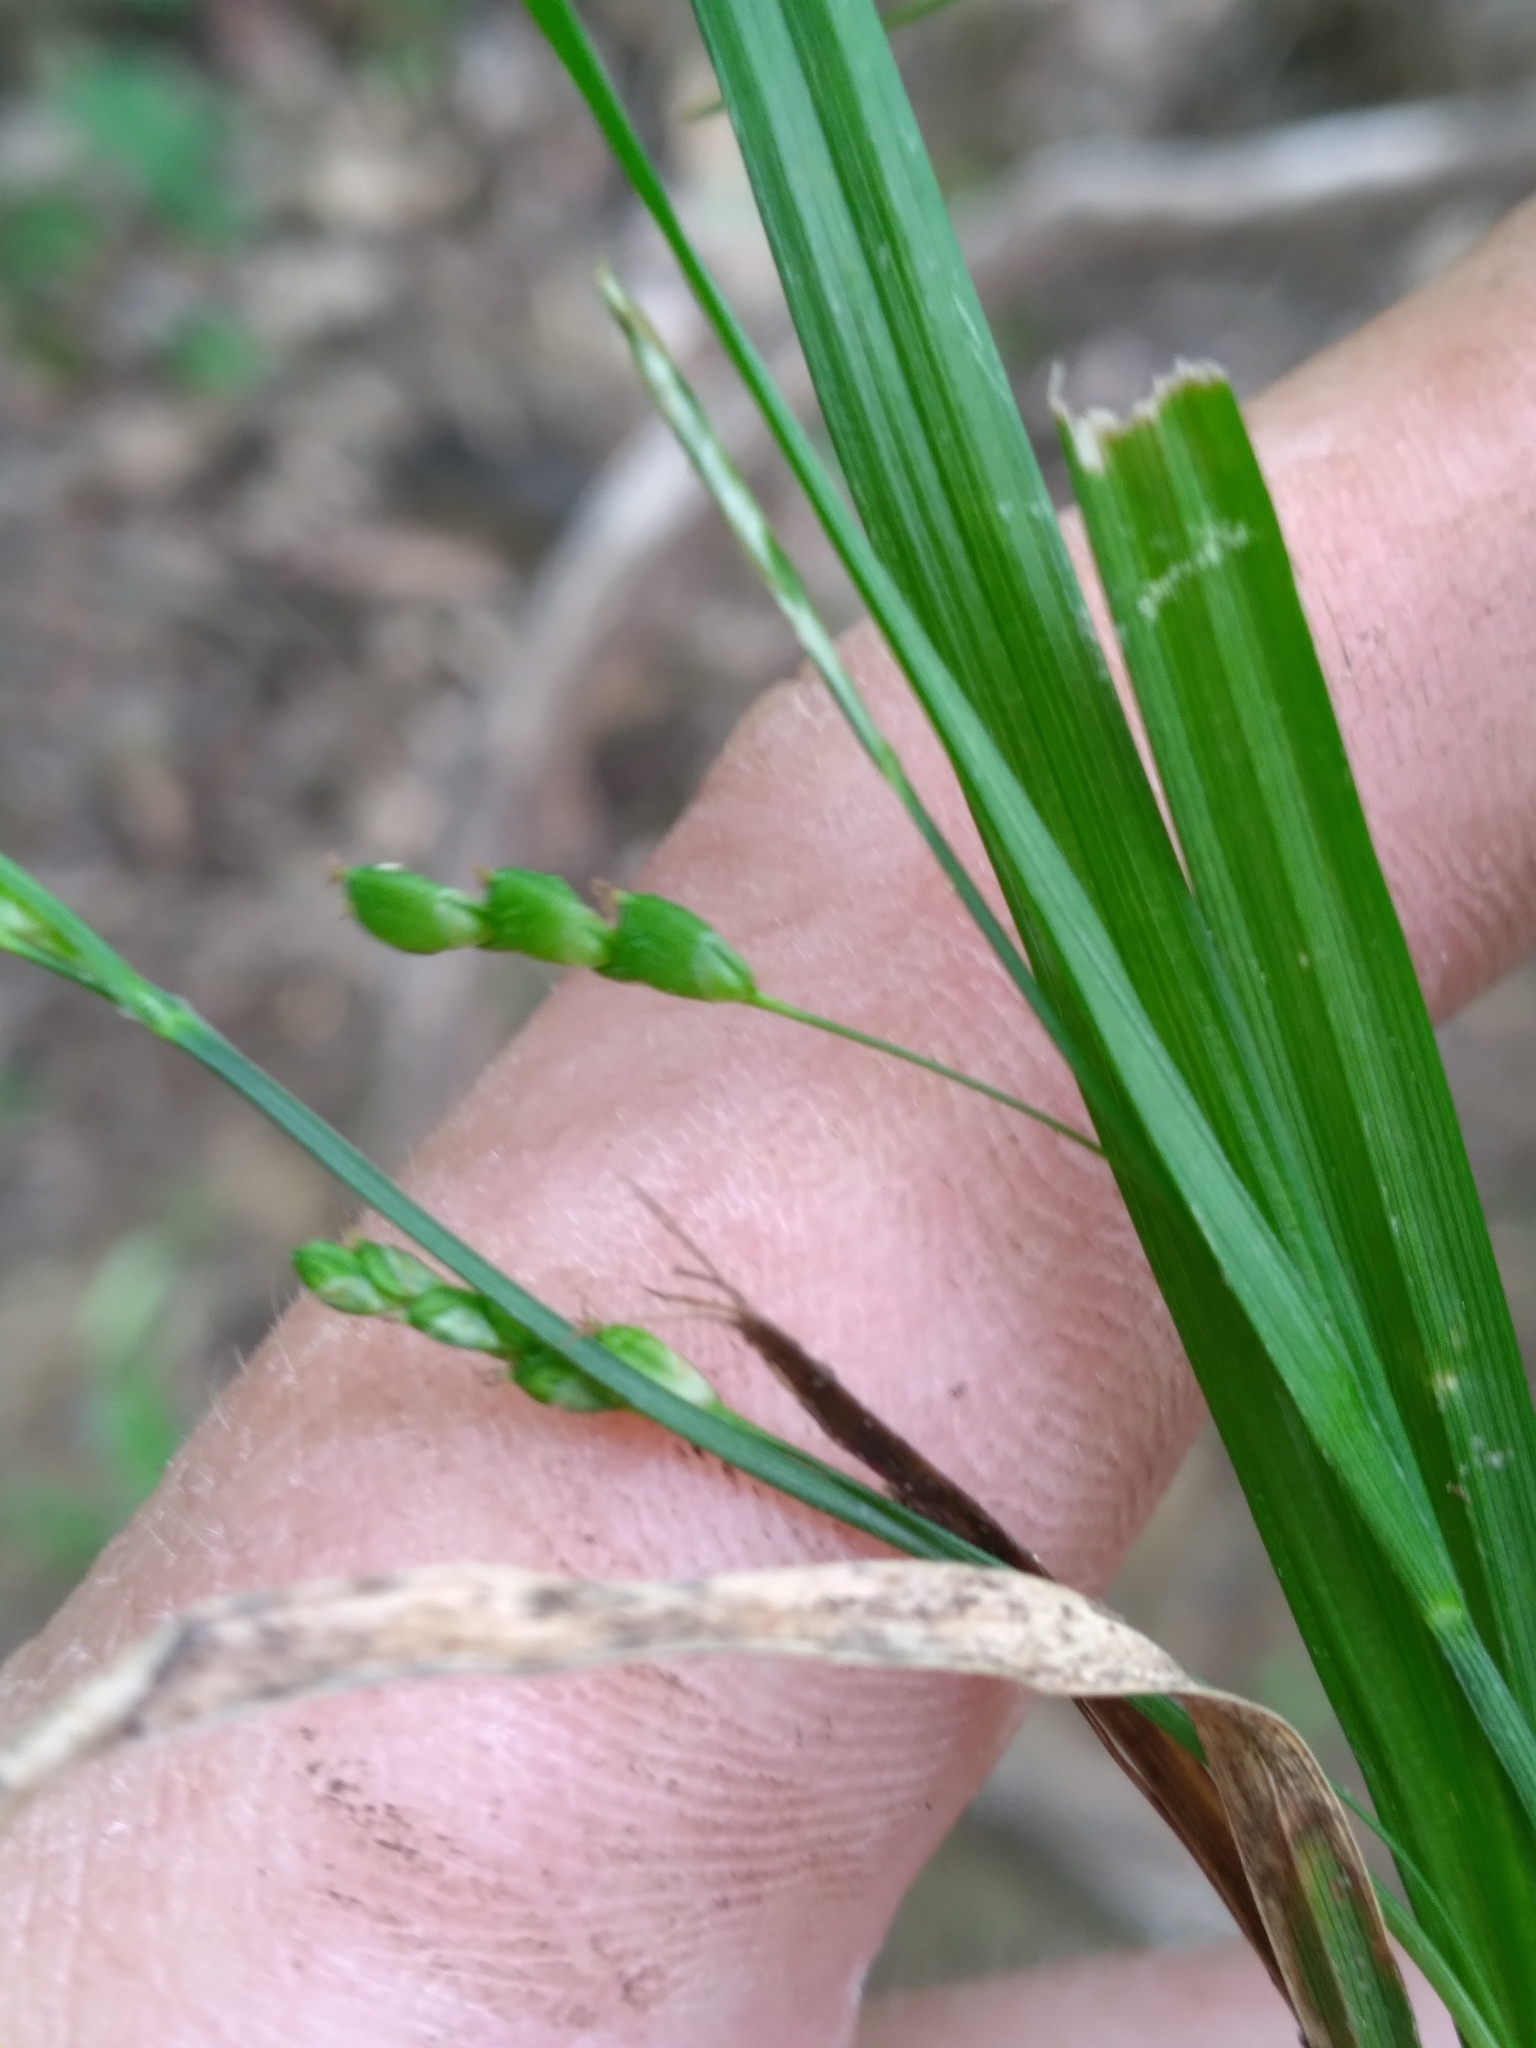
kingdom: Plantae
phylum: Tracheophyta
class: Liliopsida
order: Poales
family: Cyperaceae
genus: Carex
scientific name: Carex digitalis
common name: Slender wood sedge
